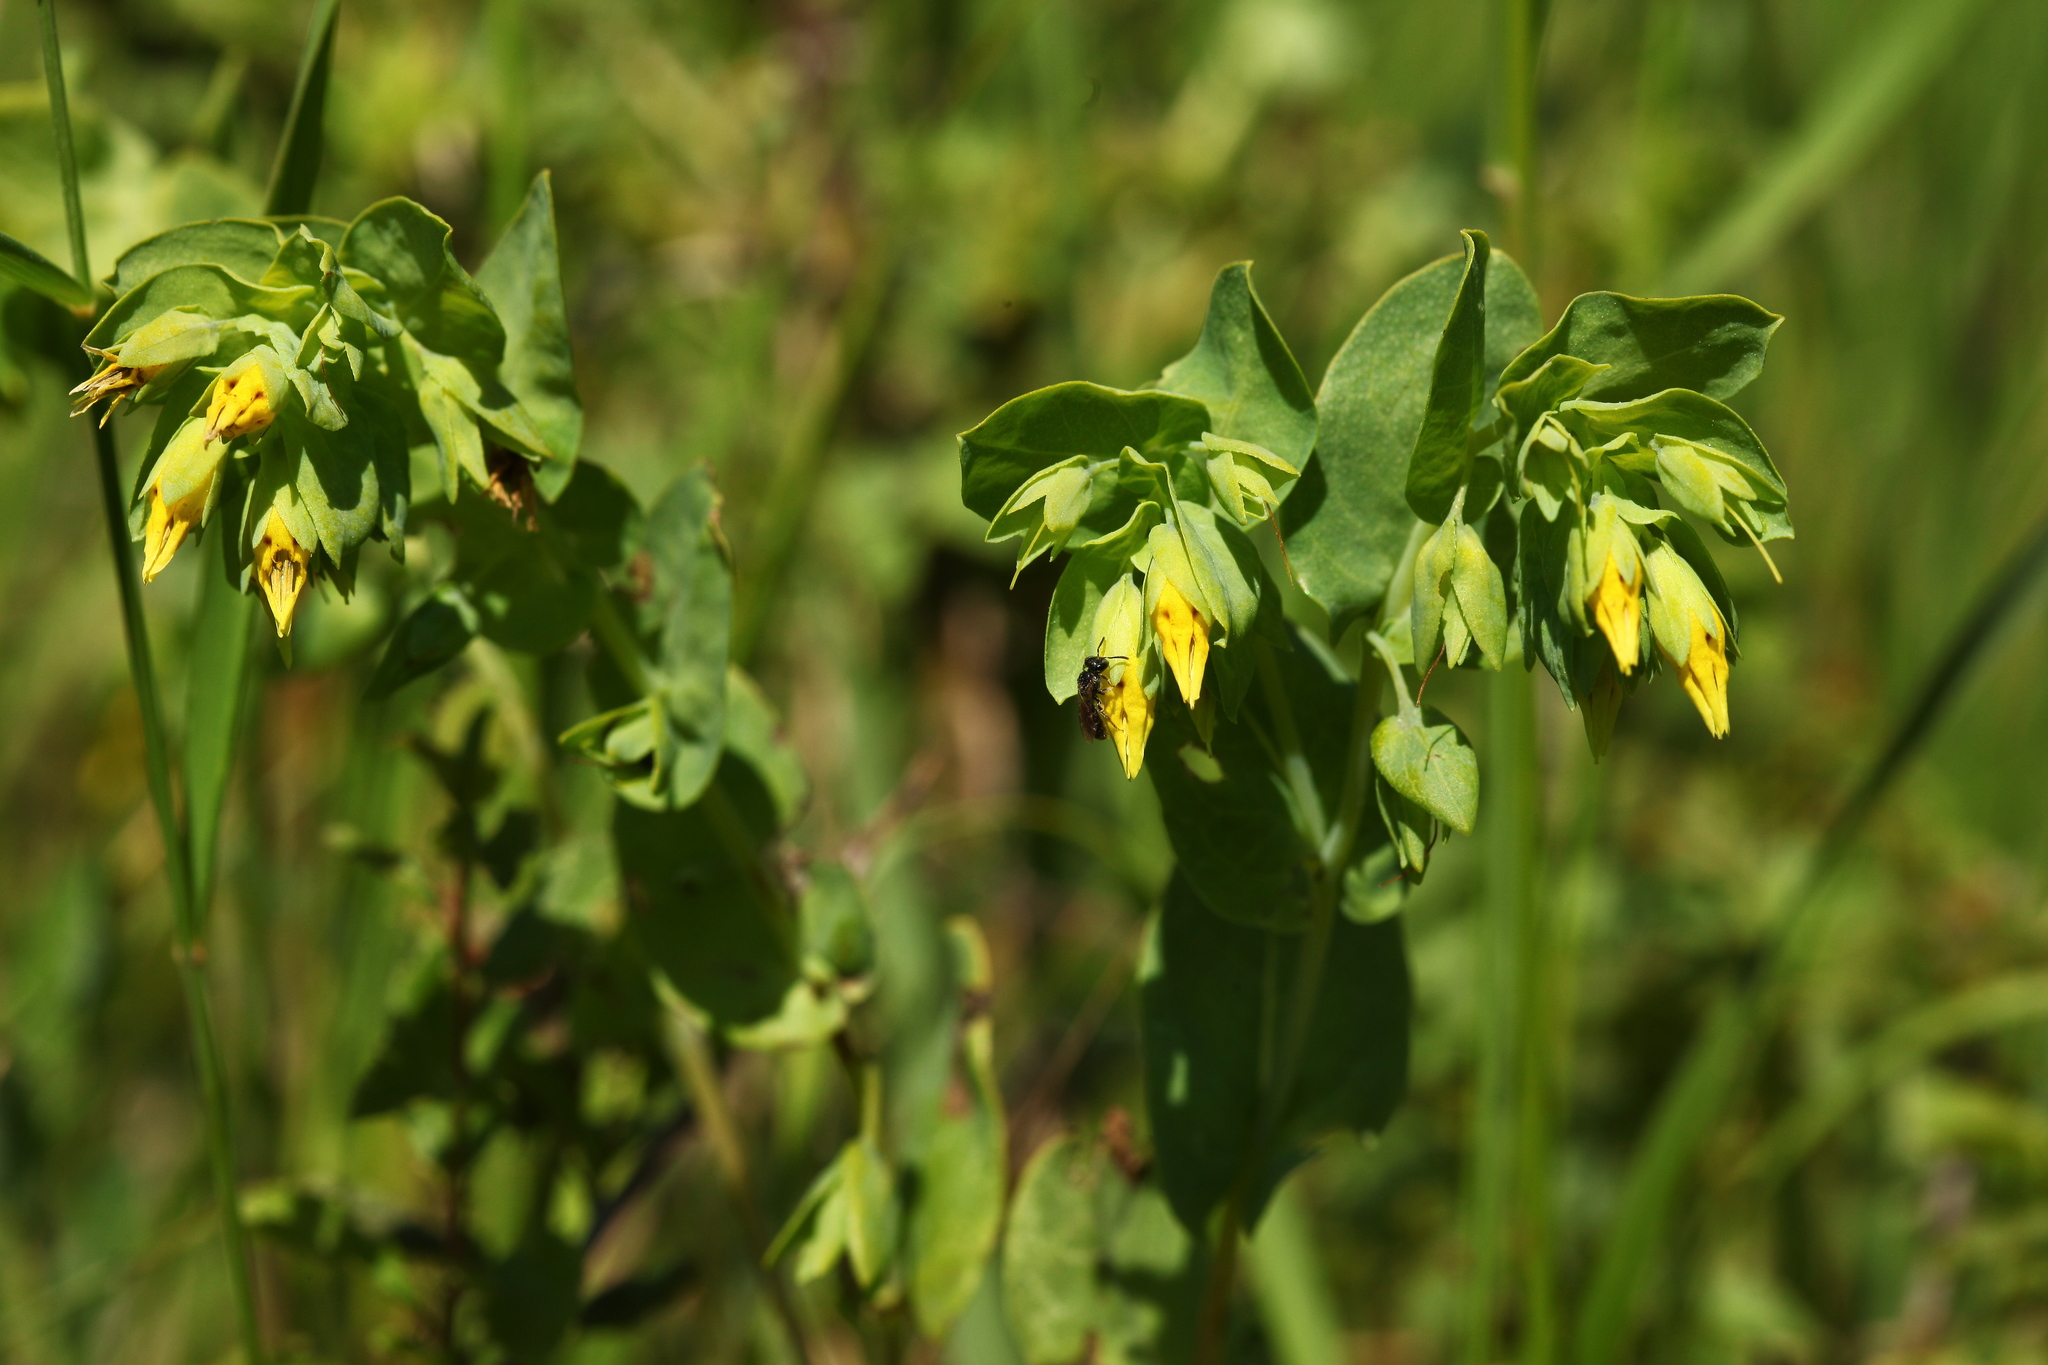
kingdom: Plantae
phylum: Tracheophyta
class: Magnoliopsida
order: Boraginales
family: Boraginaceae
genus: Cerinthe
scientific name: Cerinthe minor
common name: Lesser honeywort
